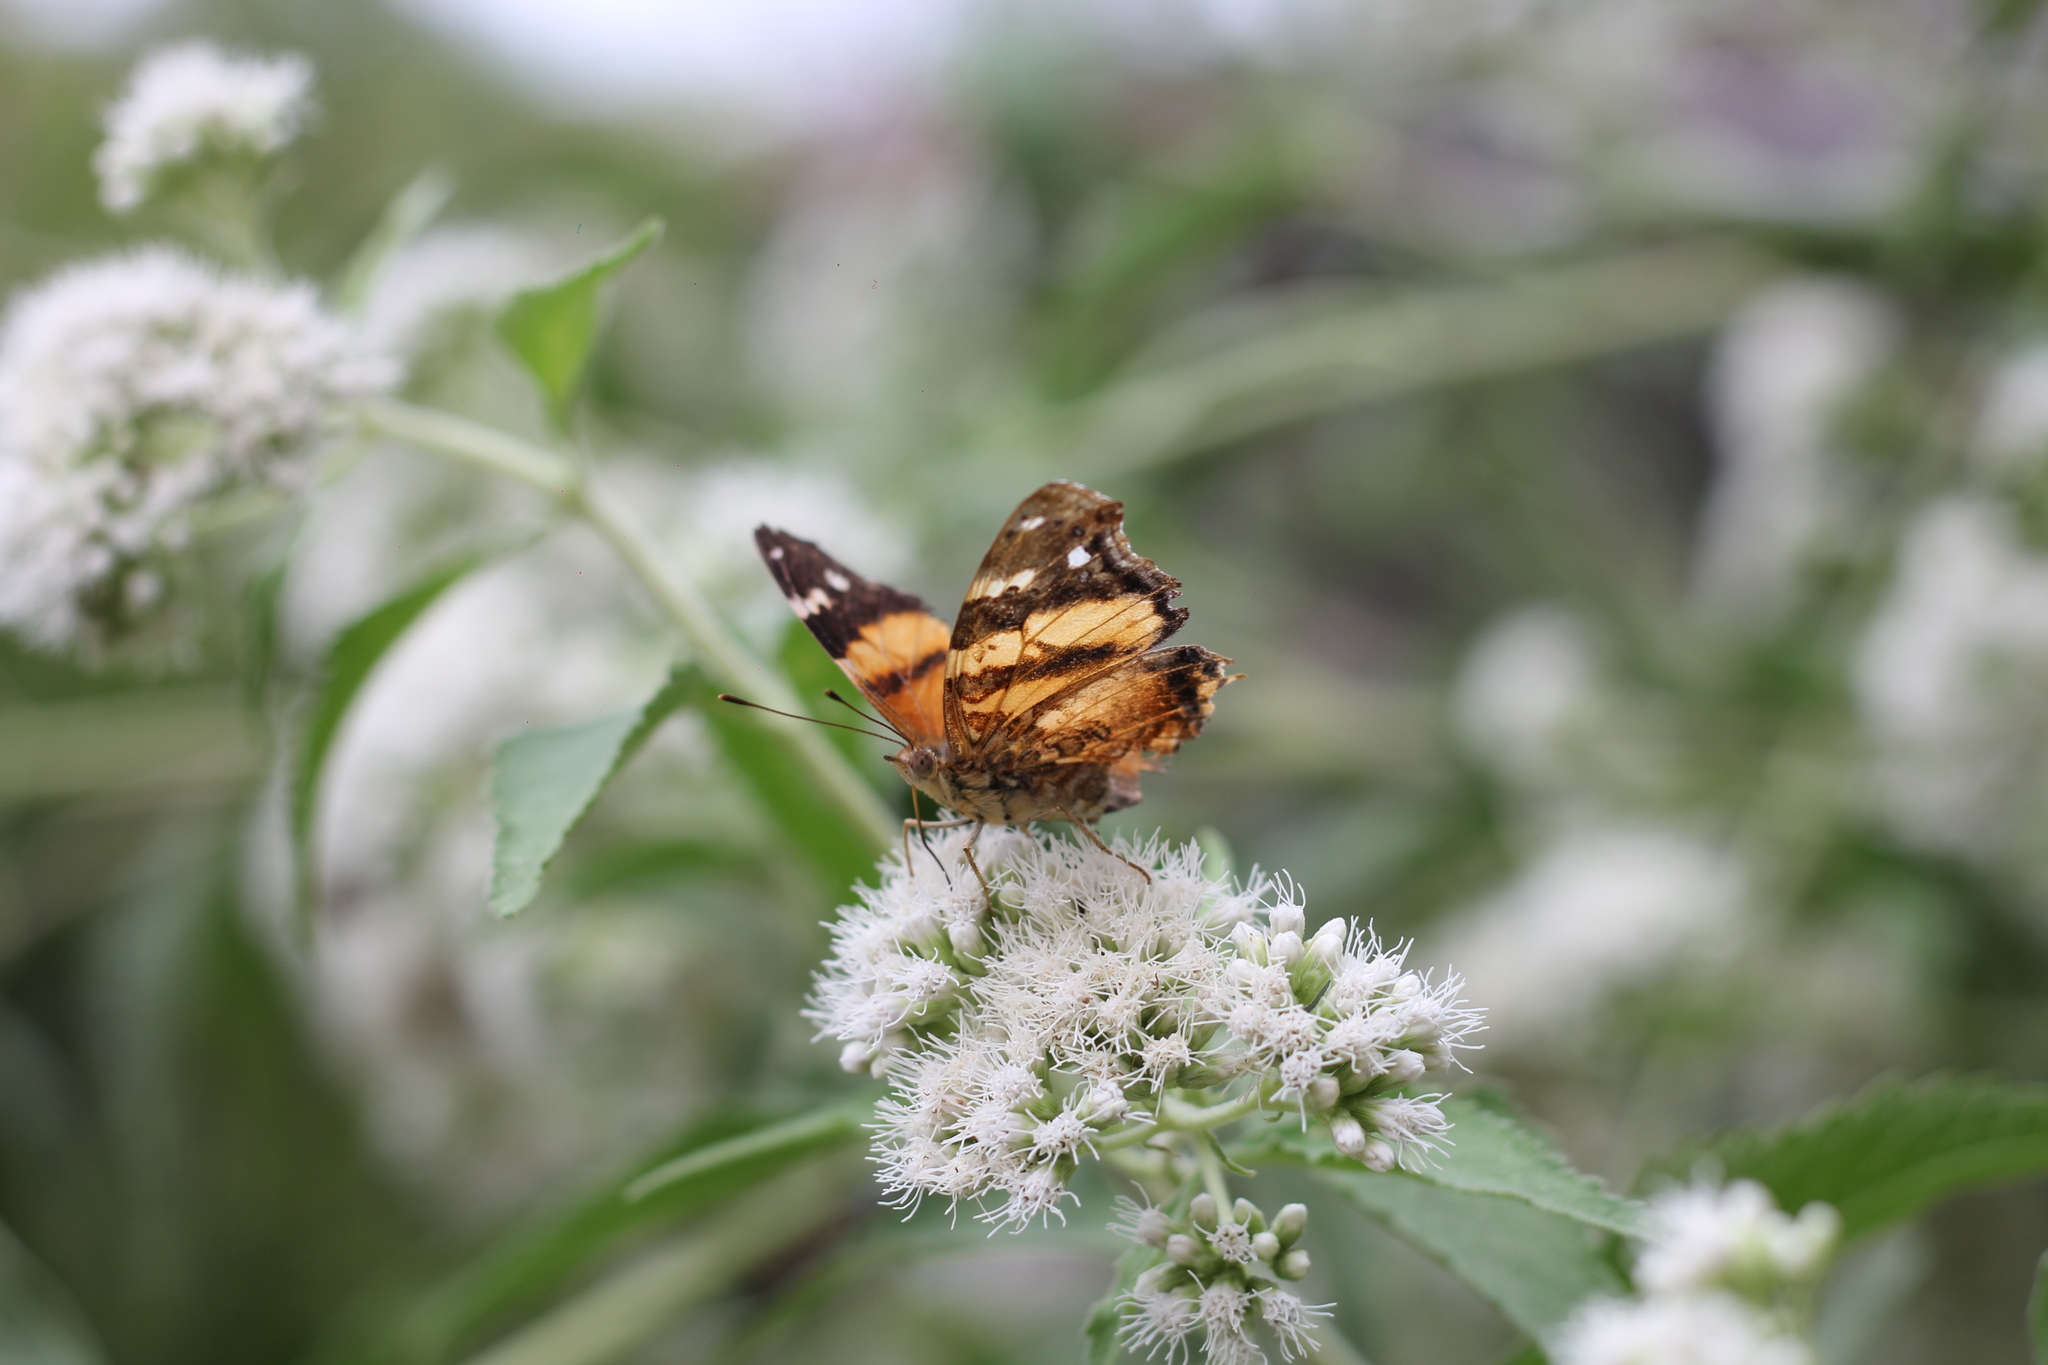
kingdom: Animalia
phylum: Arthropoda
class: Insecta
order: Lepidoptera
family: Nymphalidae
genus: Hypanartia
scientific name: Hypanartia bella
